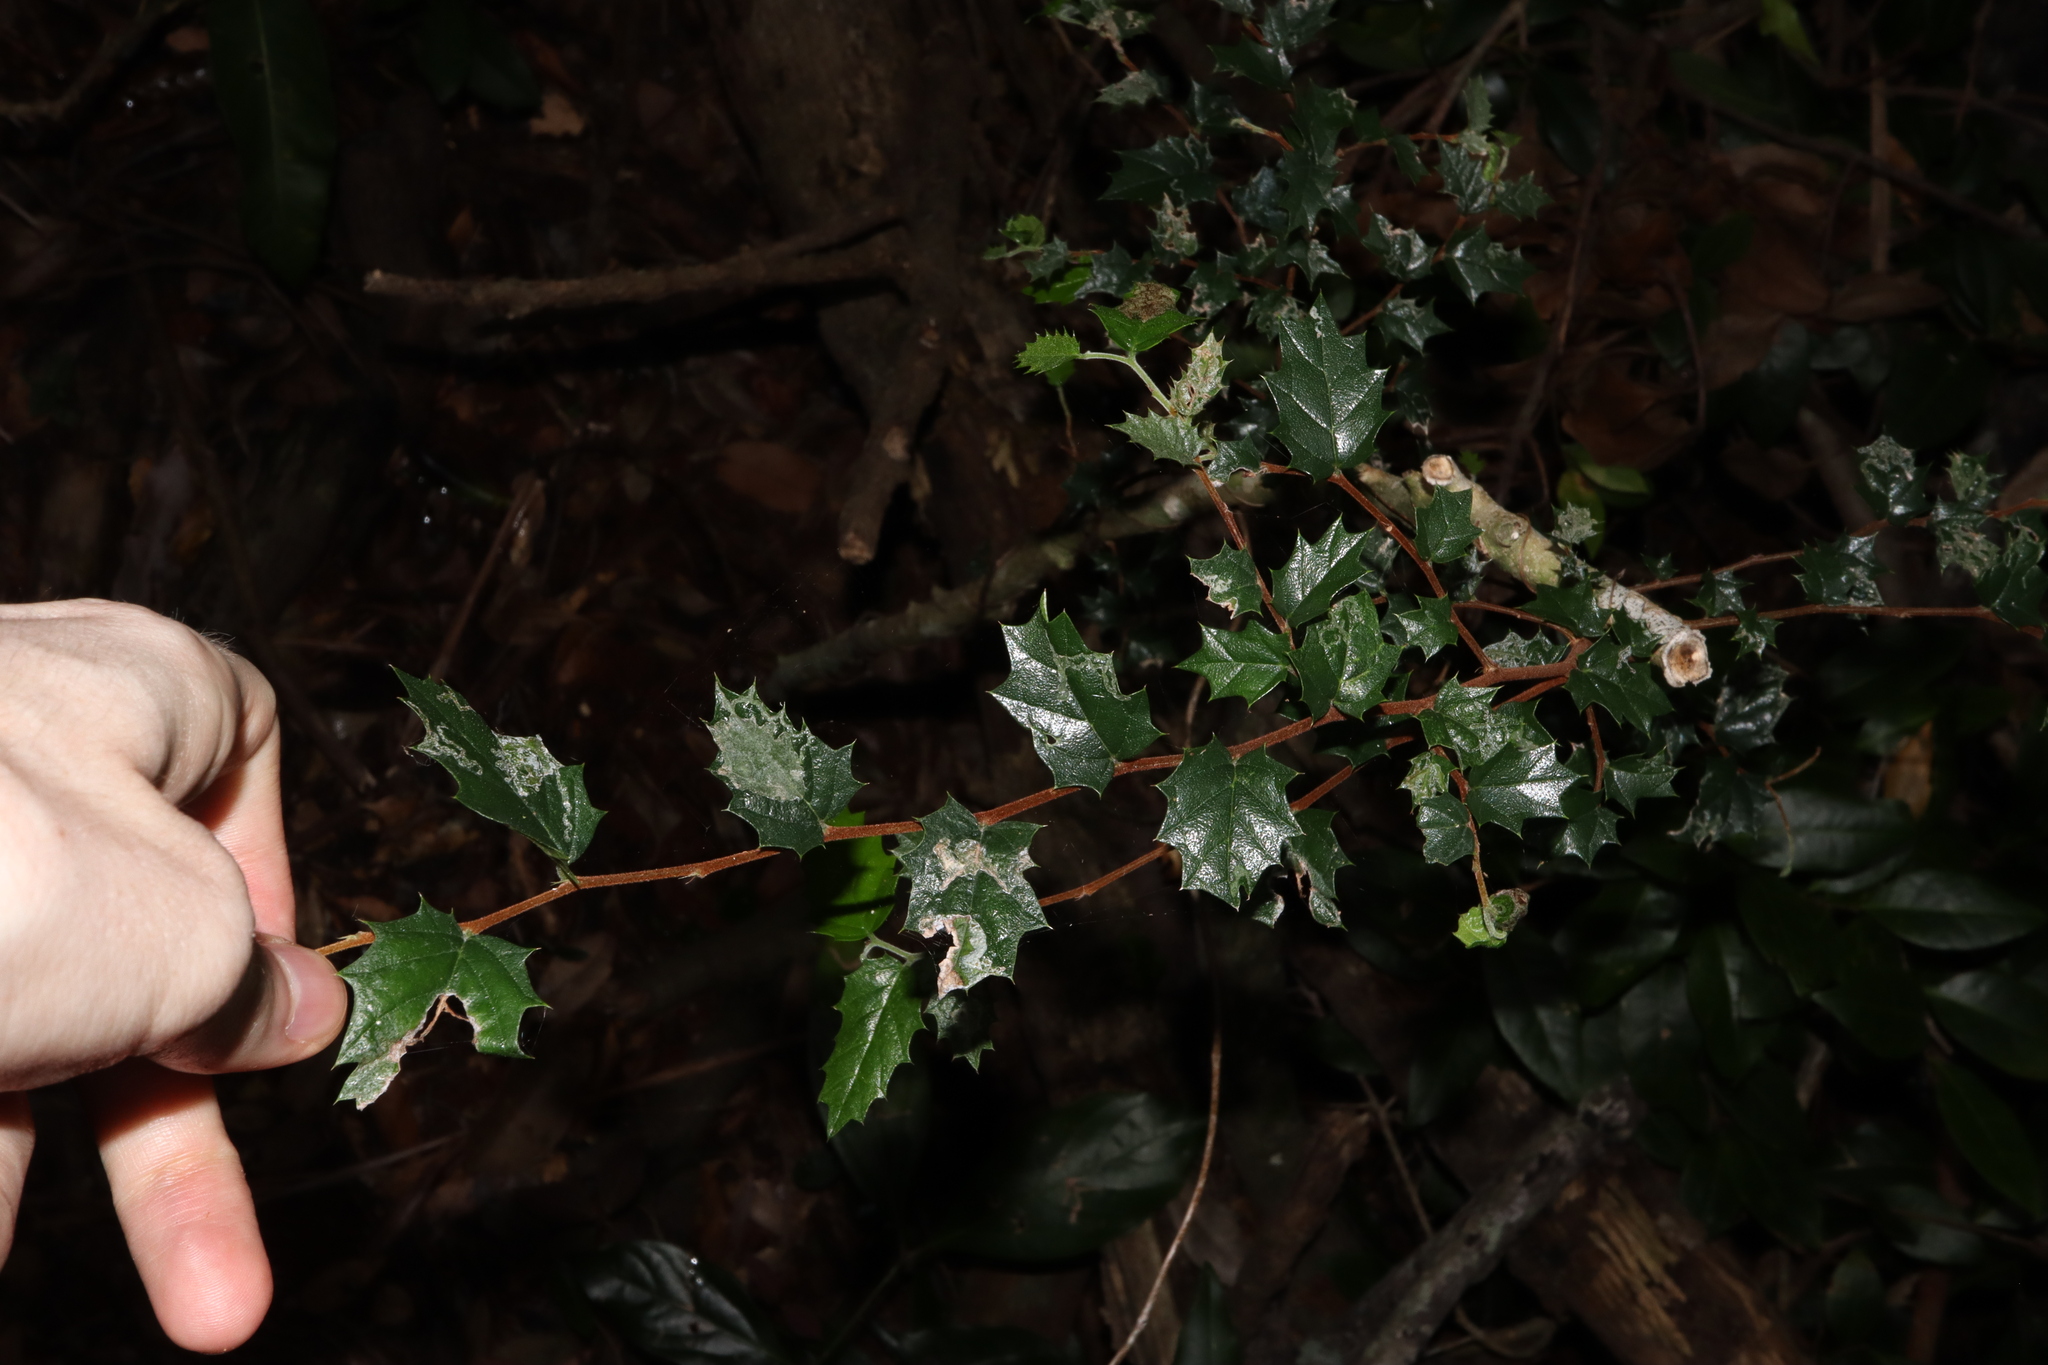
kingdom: Plantae
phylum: Tracheophyta
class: Magnoliopsida
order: Rosales
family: Cannabaceae
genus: Aphananthe
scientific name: Aphananthe philippinensis
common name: Wild holly
